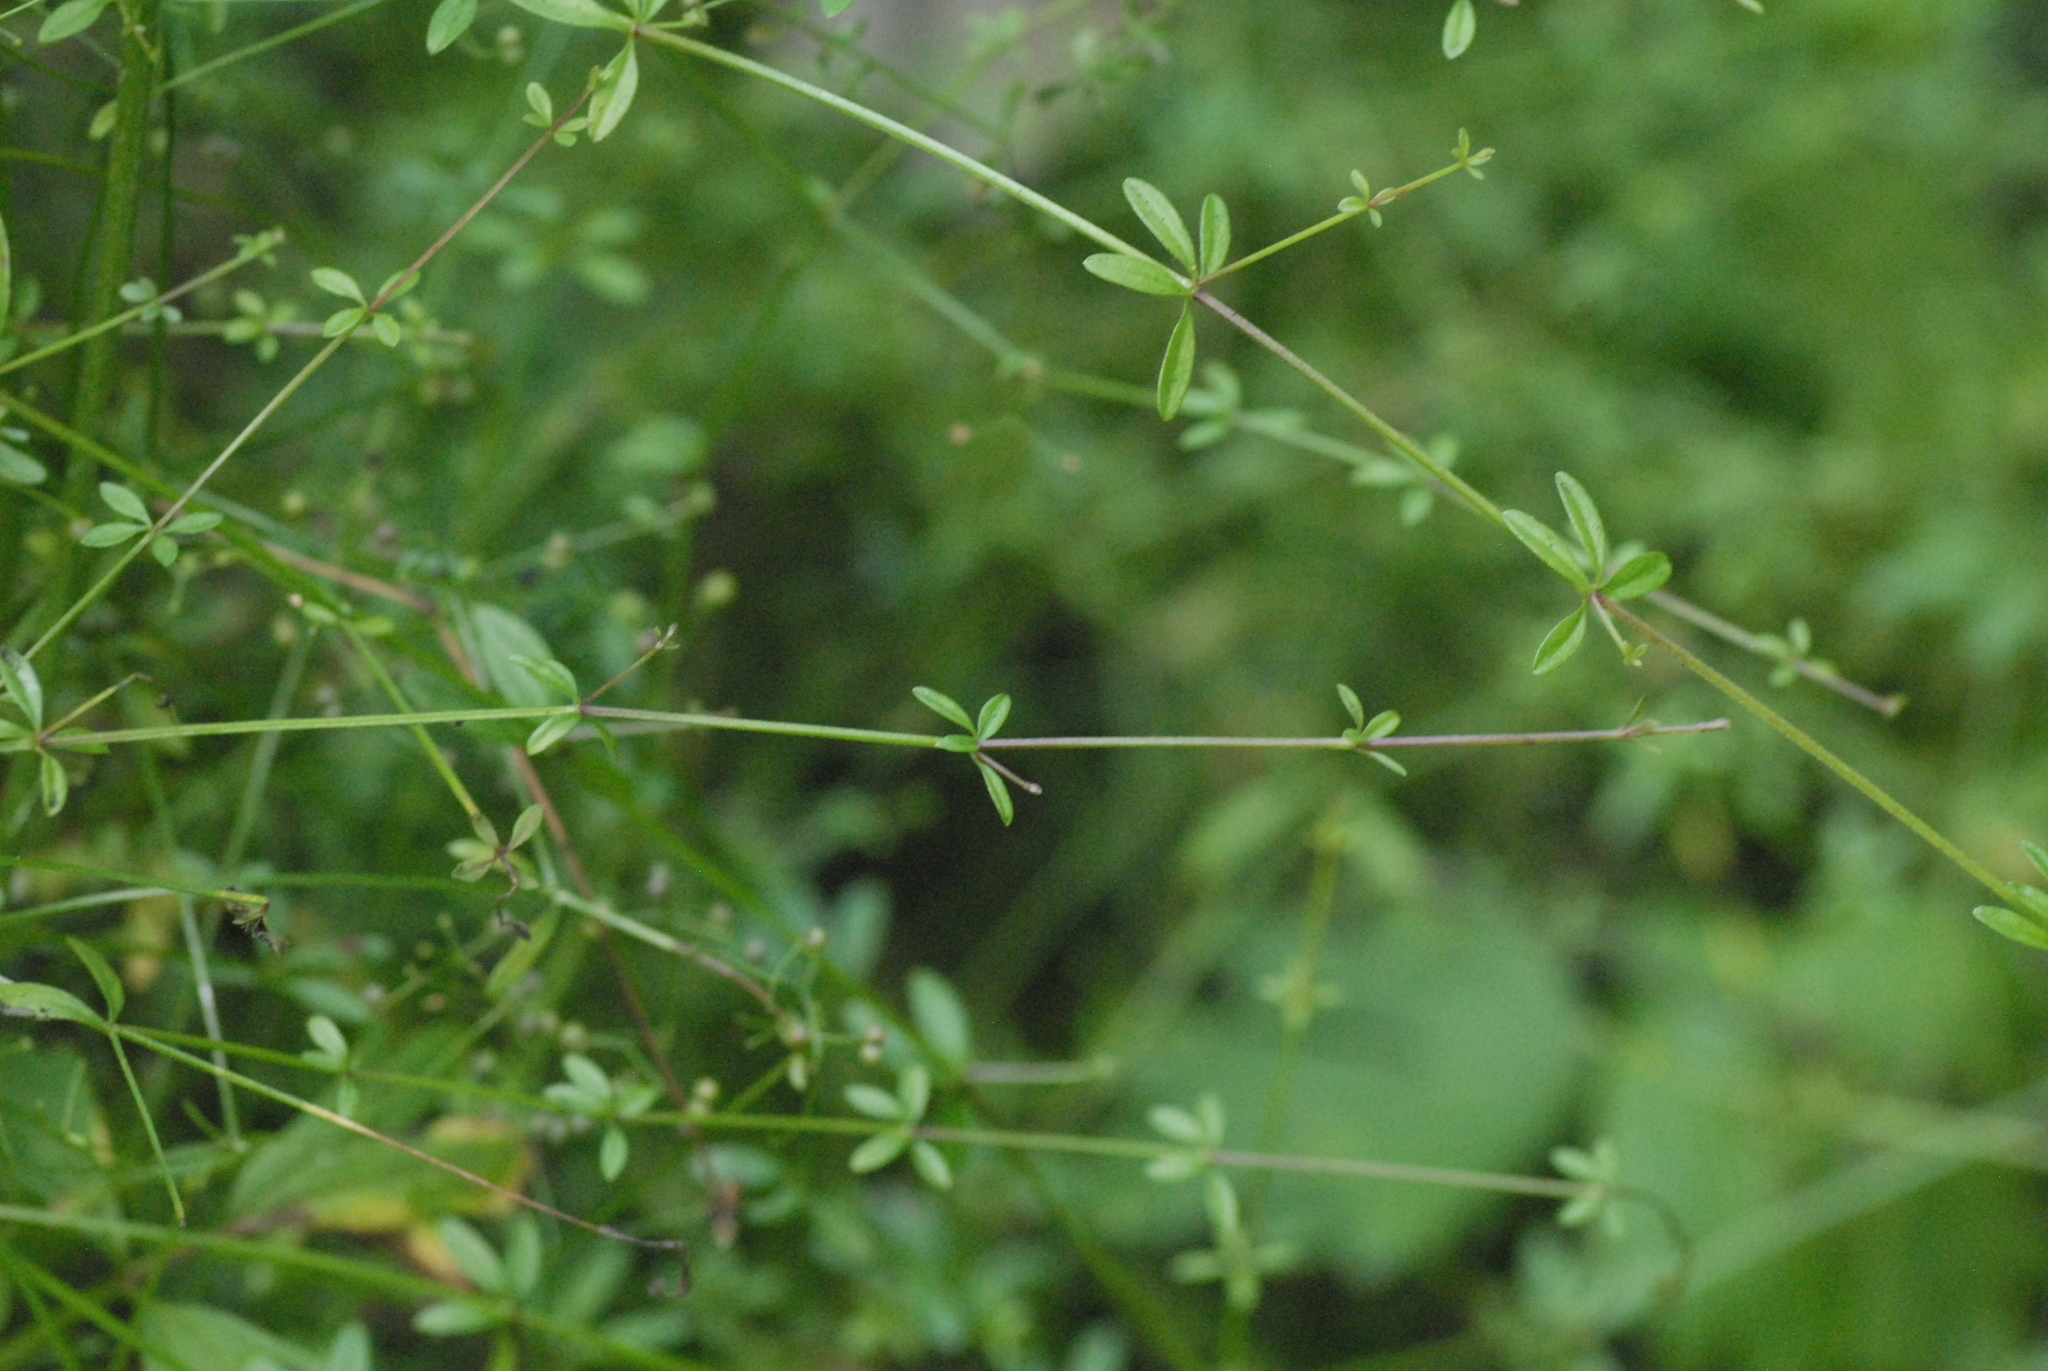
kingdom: Plantae
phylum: Tracheophyta
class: Magnoliopsida
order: Gentianales
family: Rubiaceae
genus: Galium
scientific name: Galium palustre
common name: Common marsh-bedstraw
